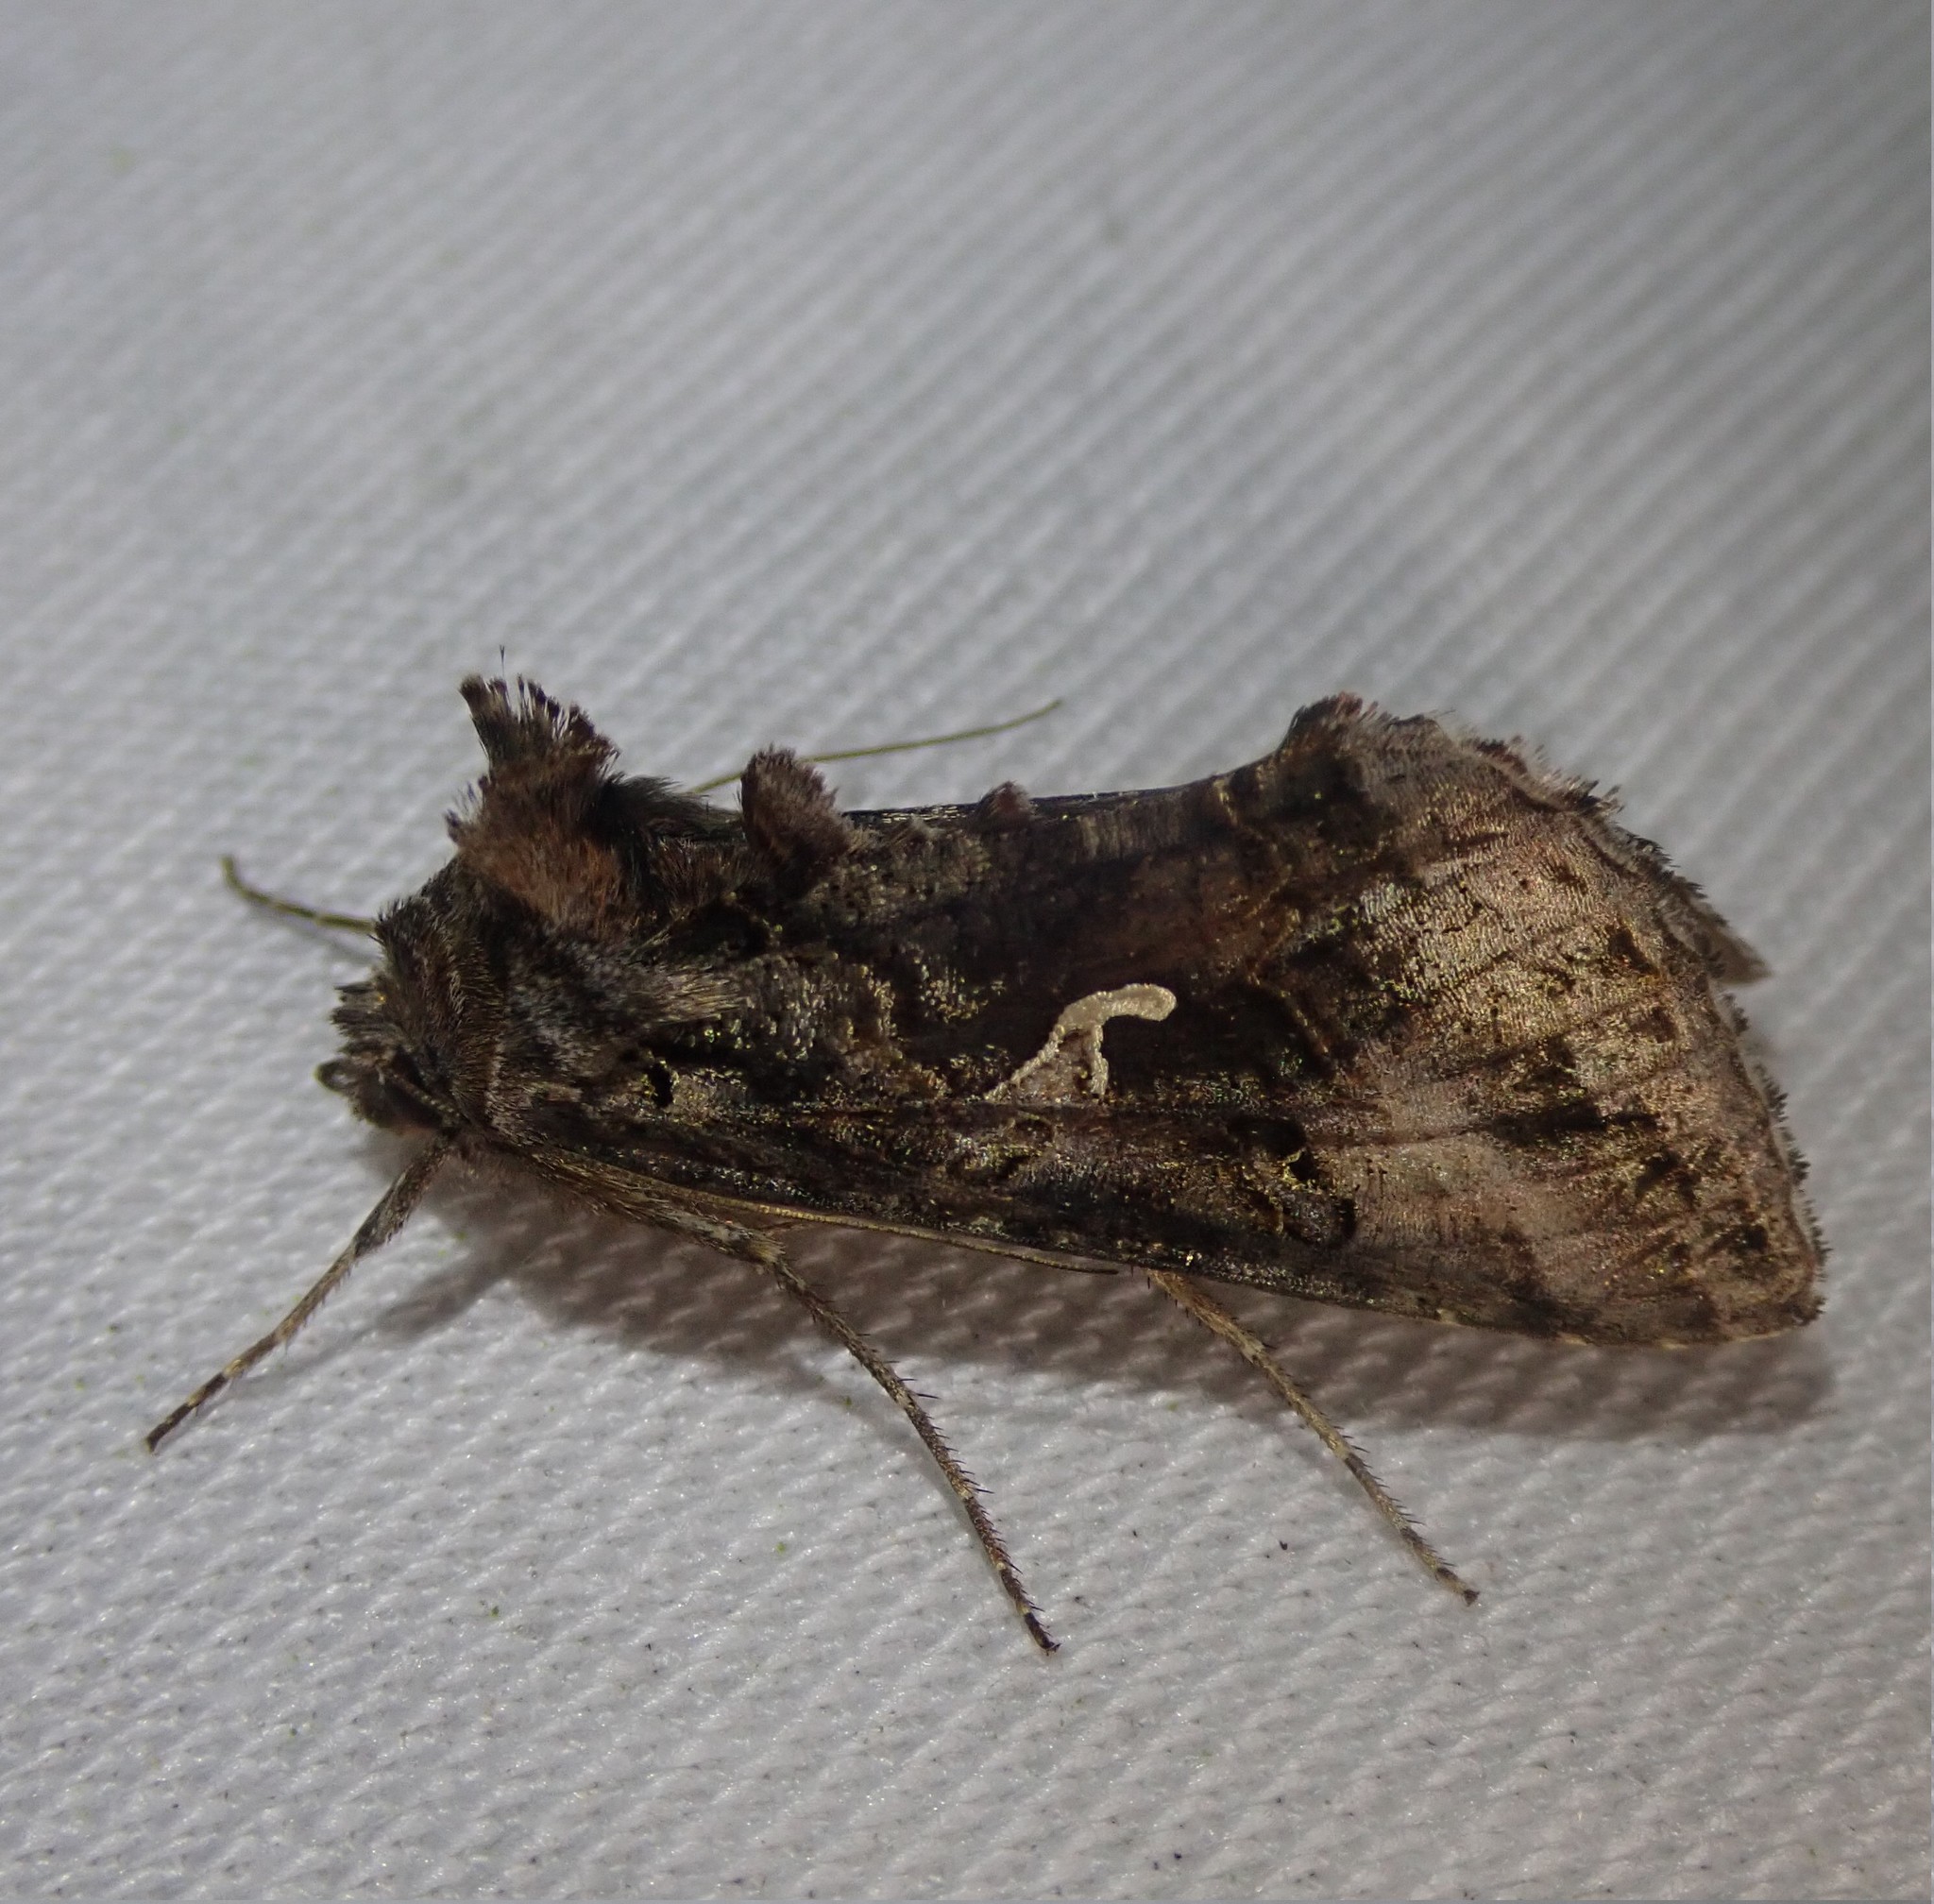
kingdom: Animalia
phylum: Arthropoda
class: Insecta
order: Lepidoptera
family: Noctuidae
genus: Autographa
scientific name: Autographa gamma
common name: Silver y
